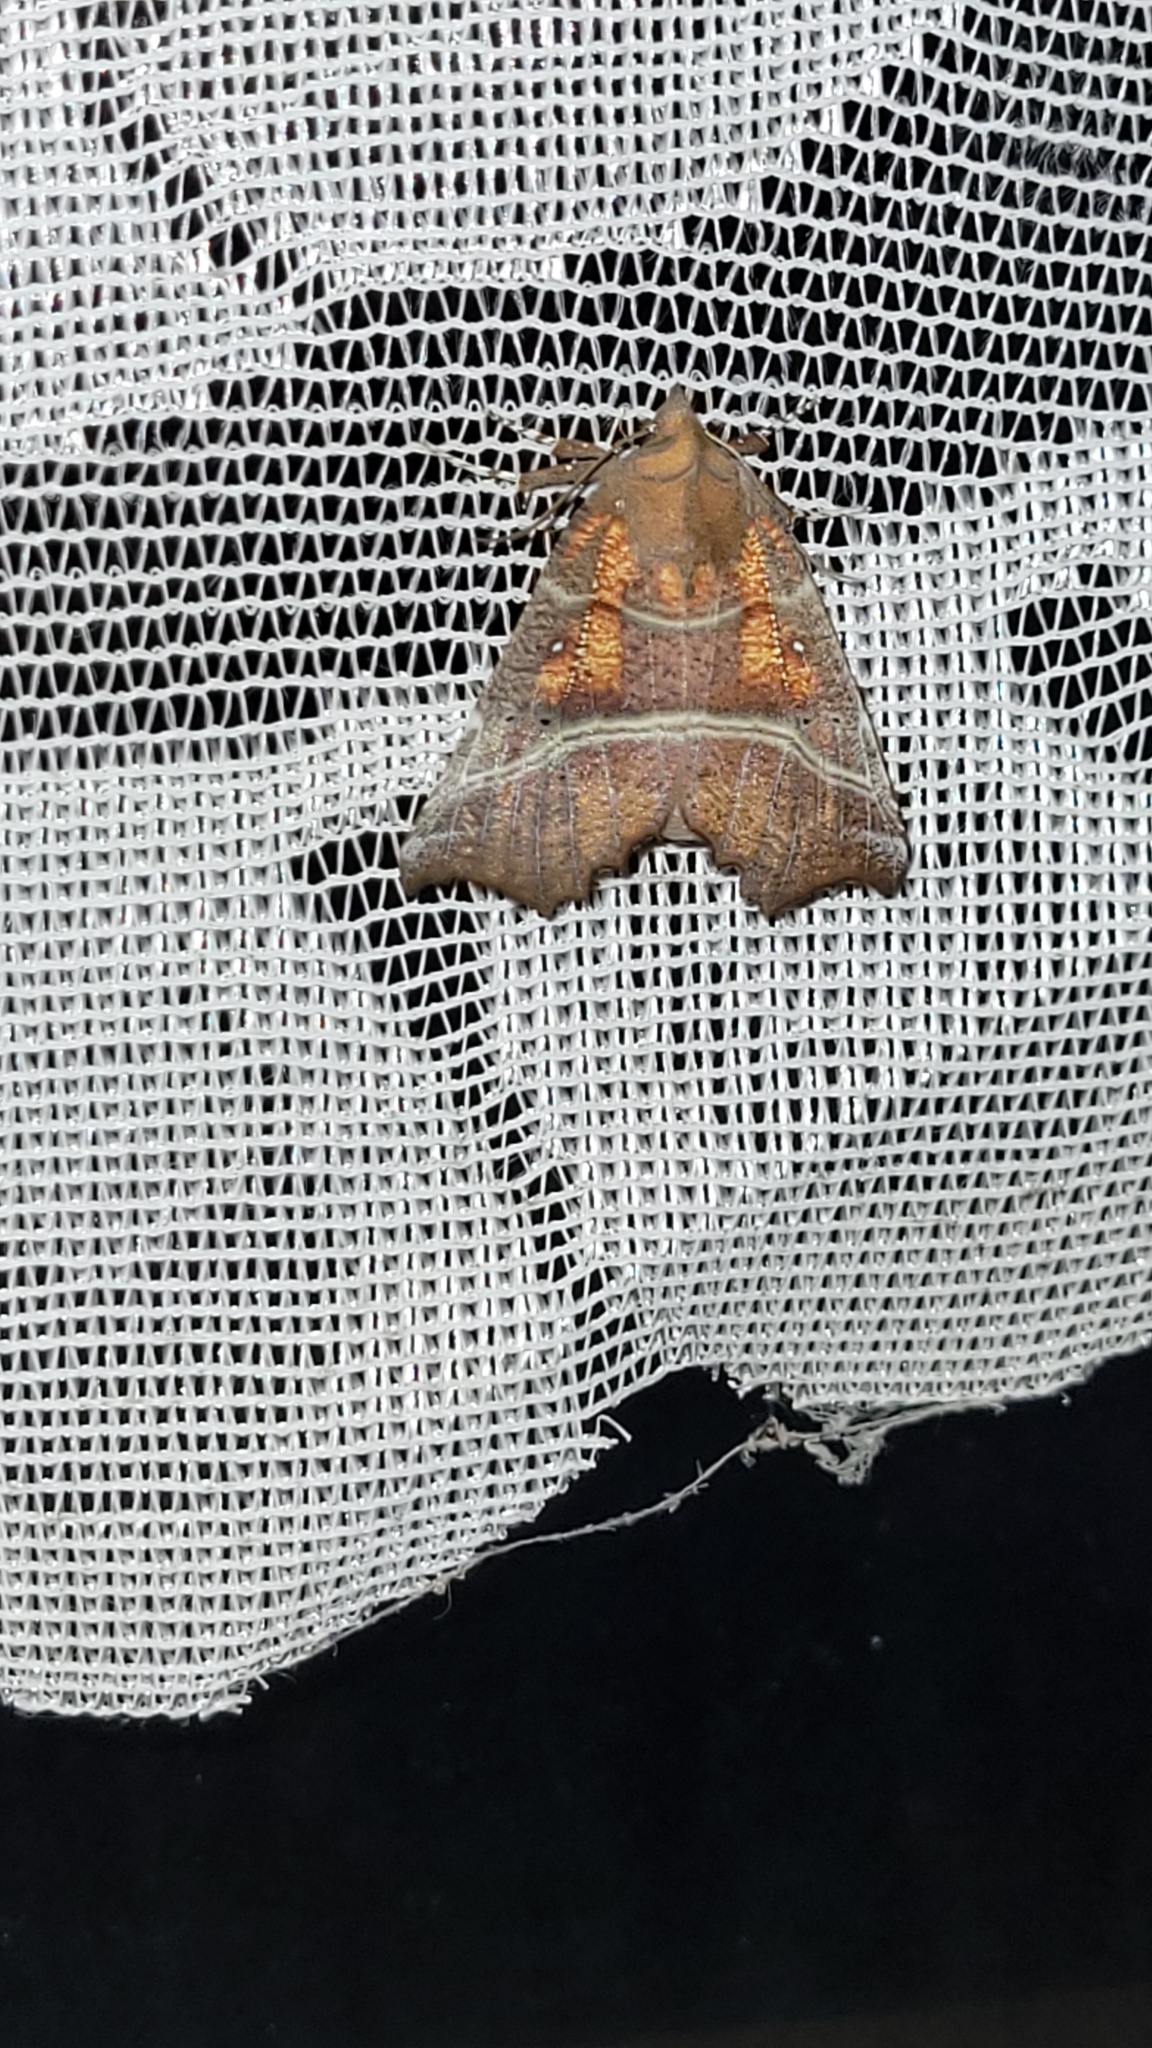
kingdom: Animalia
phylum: Arthropoda
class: Insecta
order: Lepidoptera
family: Erebidae
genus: Scoliopteryx
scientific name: Scoliopteryx libatrix
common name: Herald
